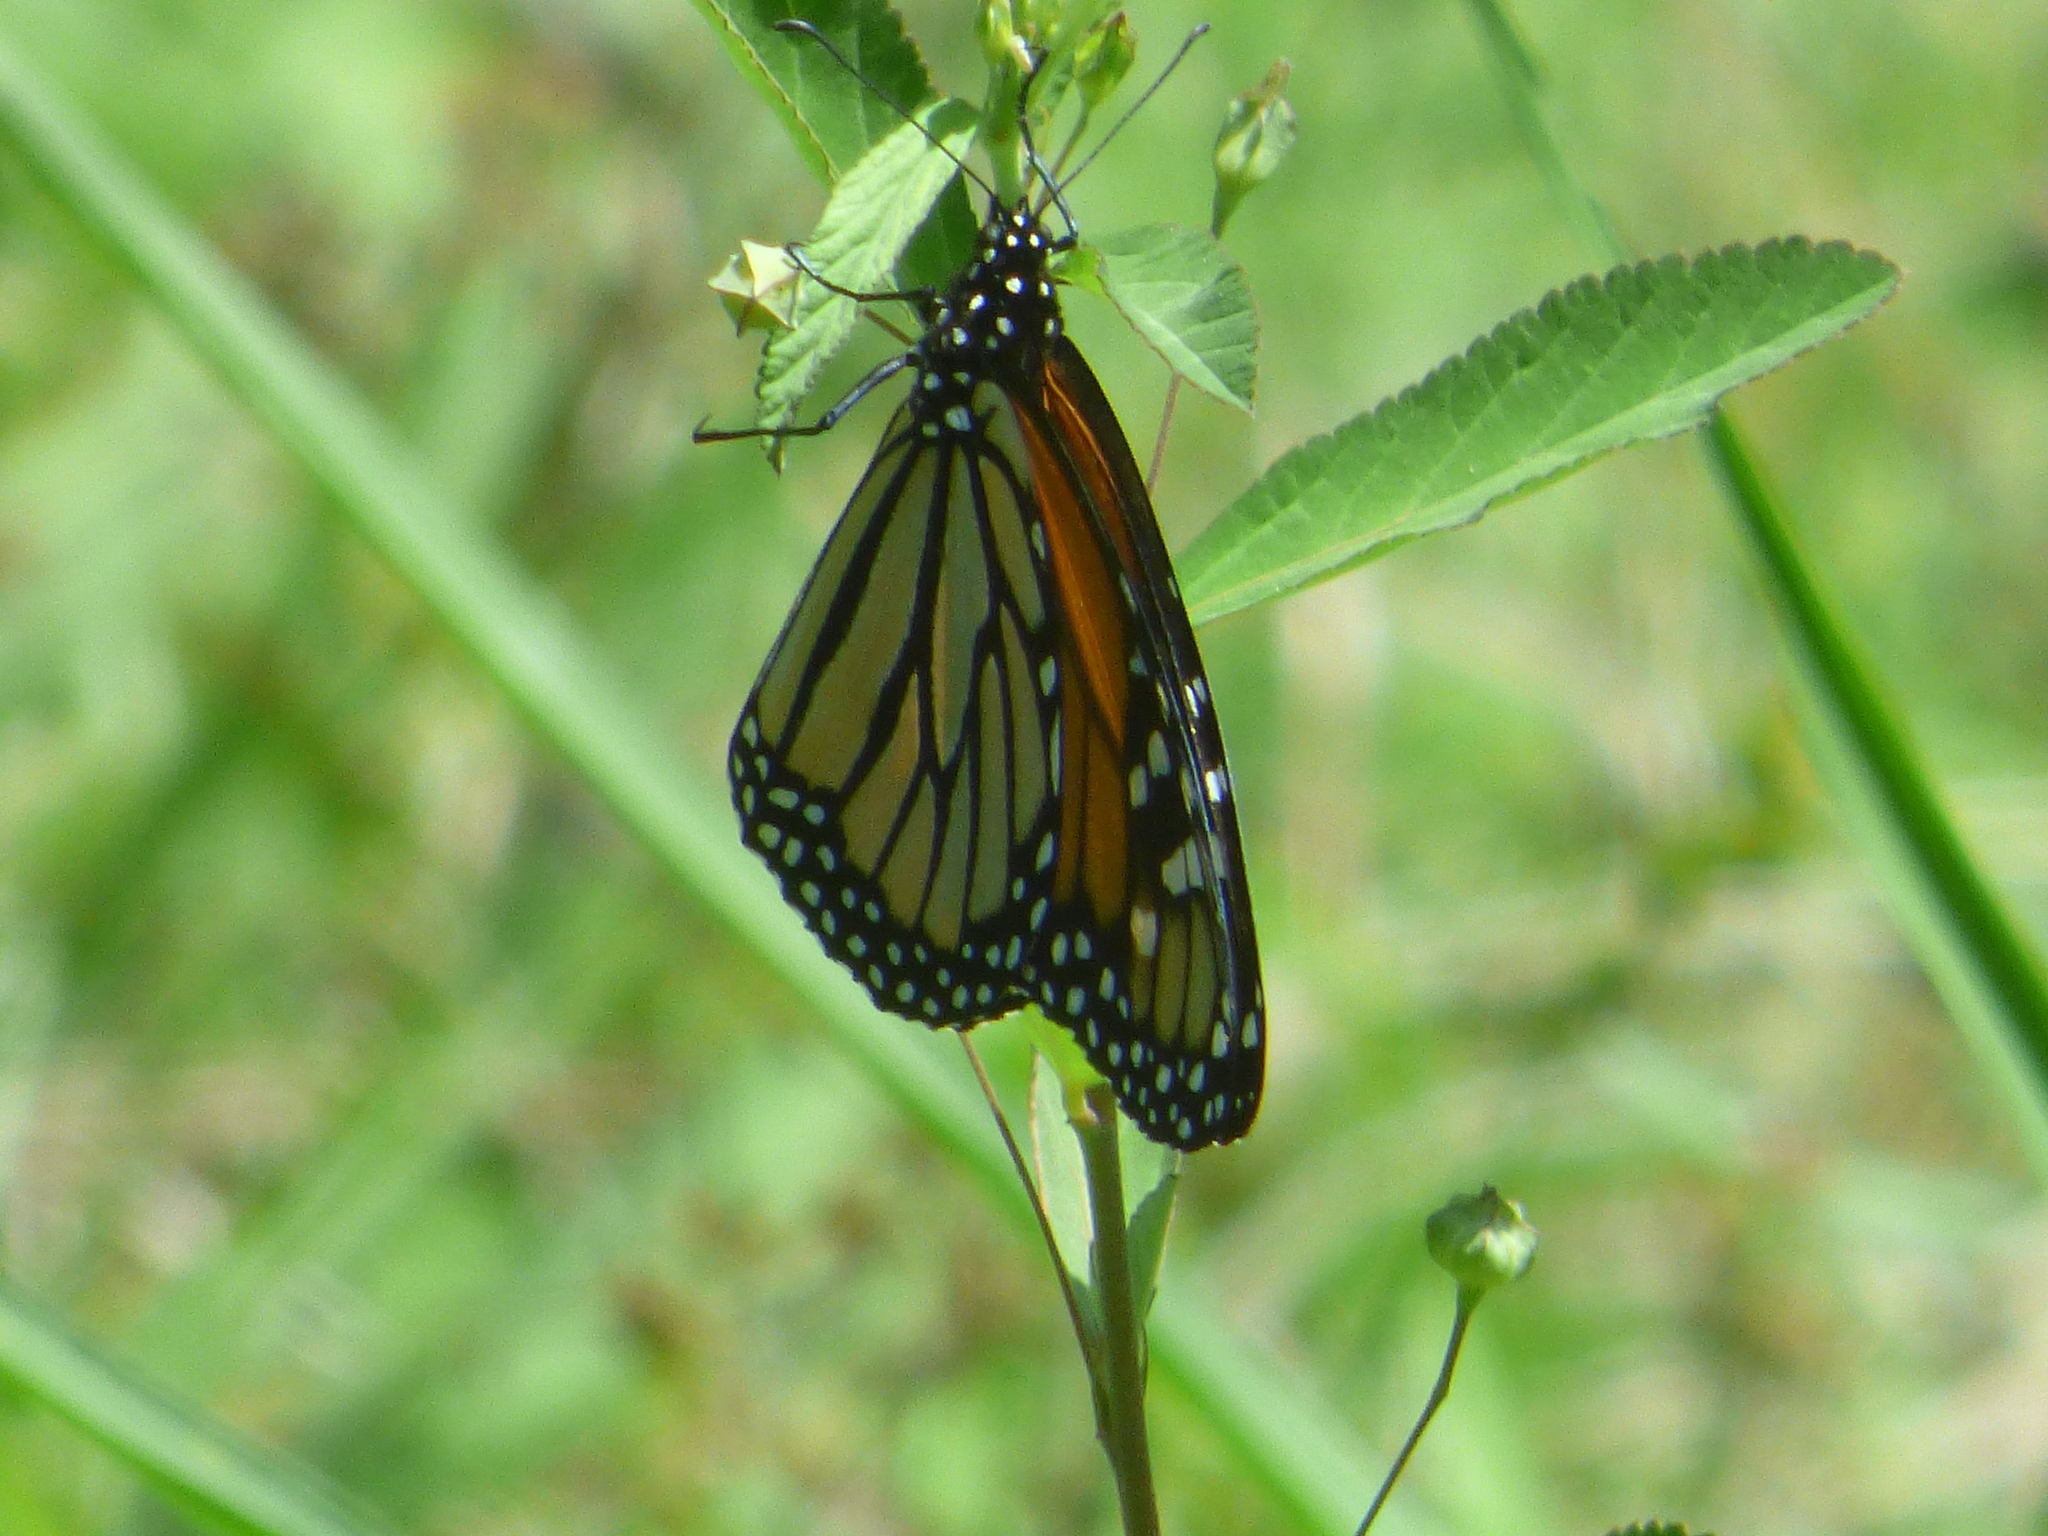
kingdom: Animalia
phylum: Arthropoda
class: Insecta
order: Lepidoptera
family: Nymphalidae
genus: Danaus
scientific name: Danaus plexippus
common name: Monarch
